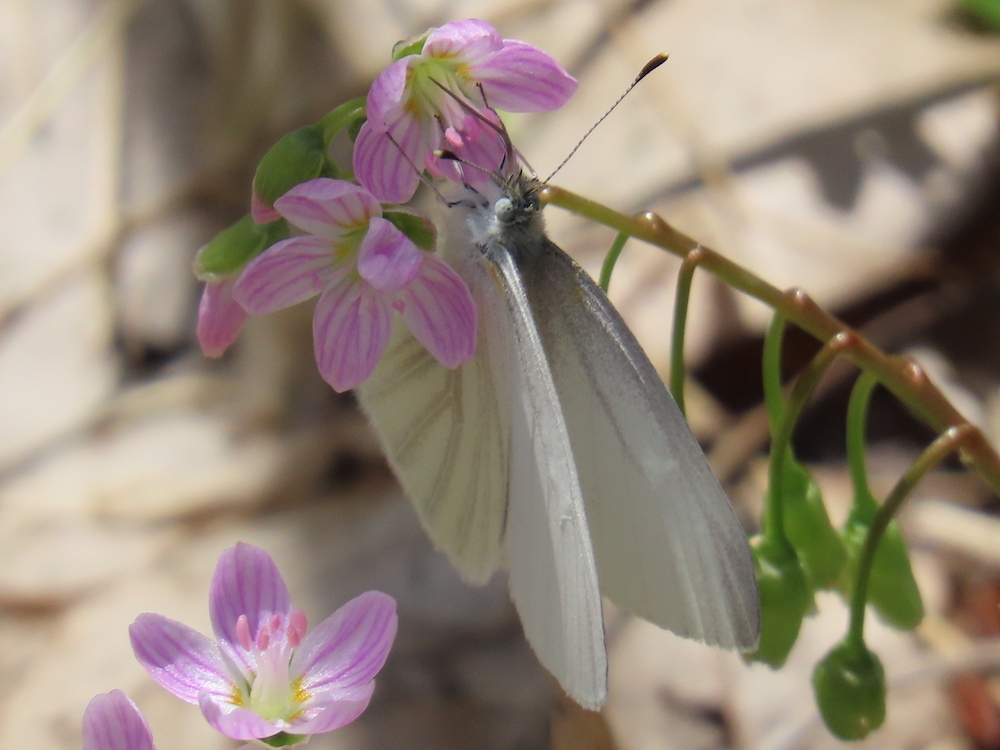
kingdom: Animalia
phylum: Arthropoda
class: Insecta
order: Lepidoptera
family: Pieridae
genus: Pieris
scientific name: Pieris virginiensis
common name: West virginia white
